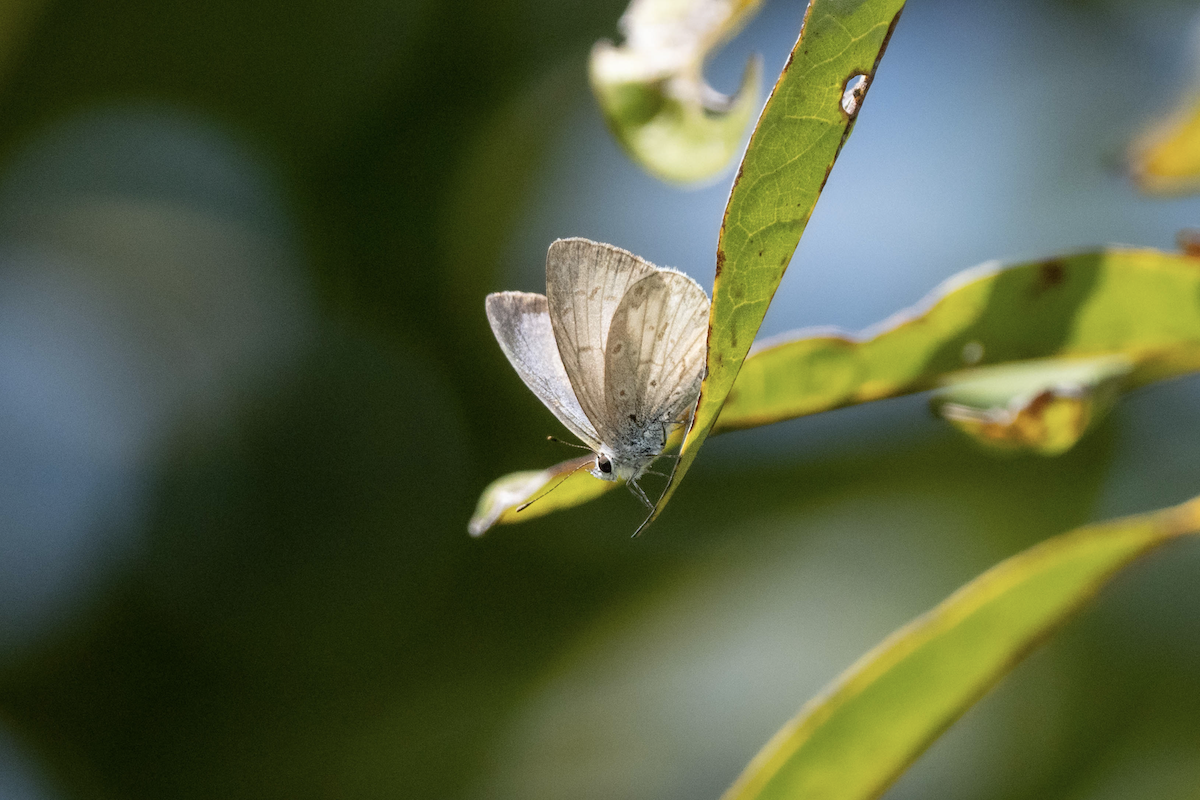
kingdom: Animalia
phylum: Arthropoda
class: Insecta
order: Lepidoptera
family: Lycaenidae
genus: Acytolepis
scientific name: Acytolepis puspa
